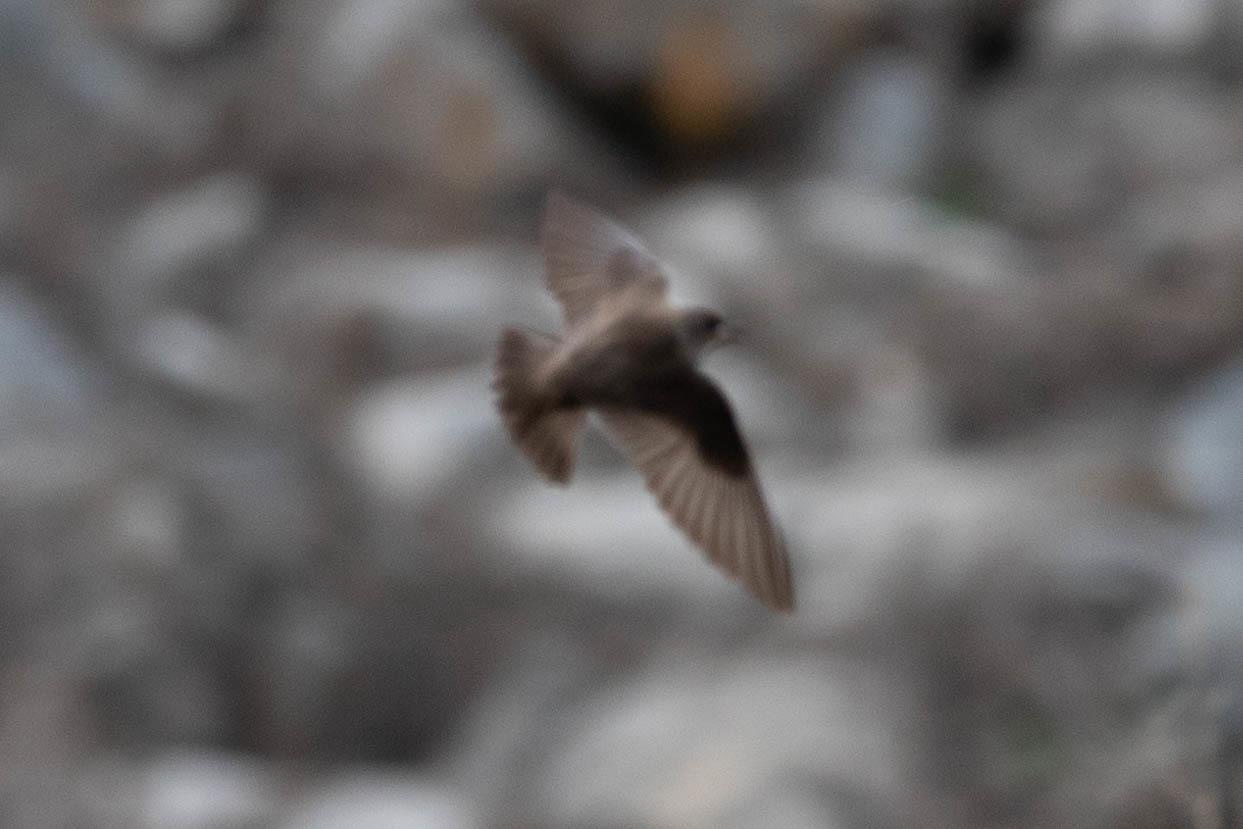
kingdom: Animalia
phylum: Chordata
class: Aves
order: Passeriformes
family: Hirundinidae
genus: Stelgidopteryx
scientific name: Stelgidopteryx serripennis
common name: Northern rough-winged swallow
